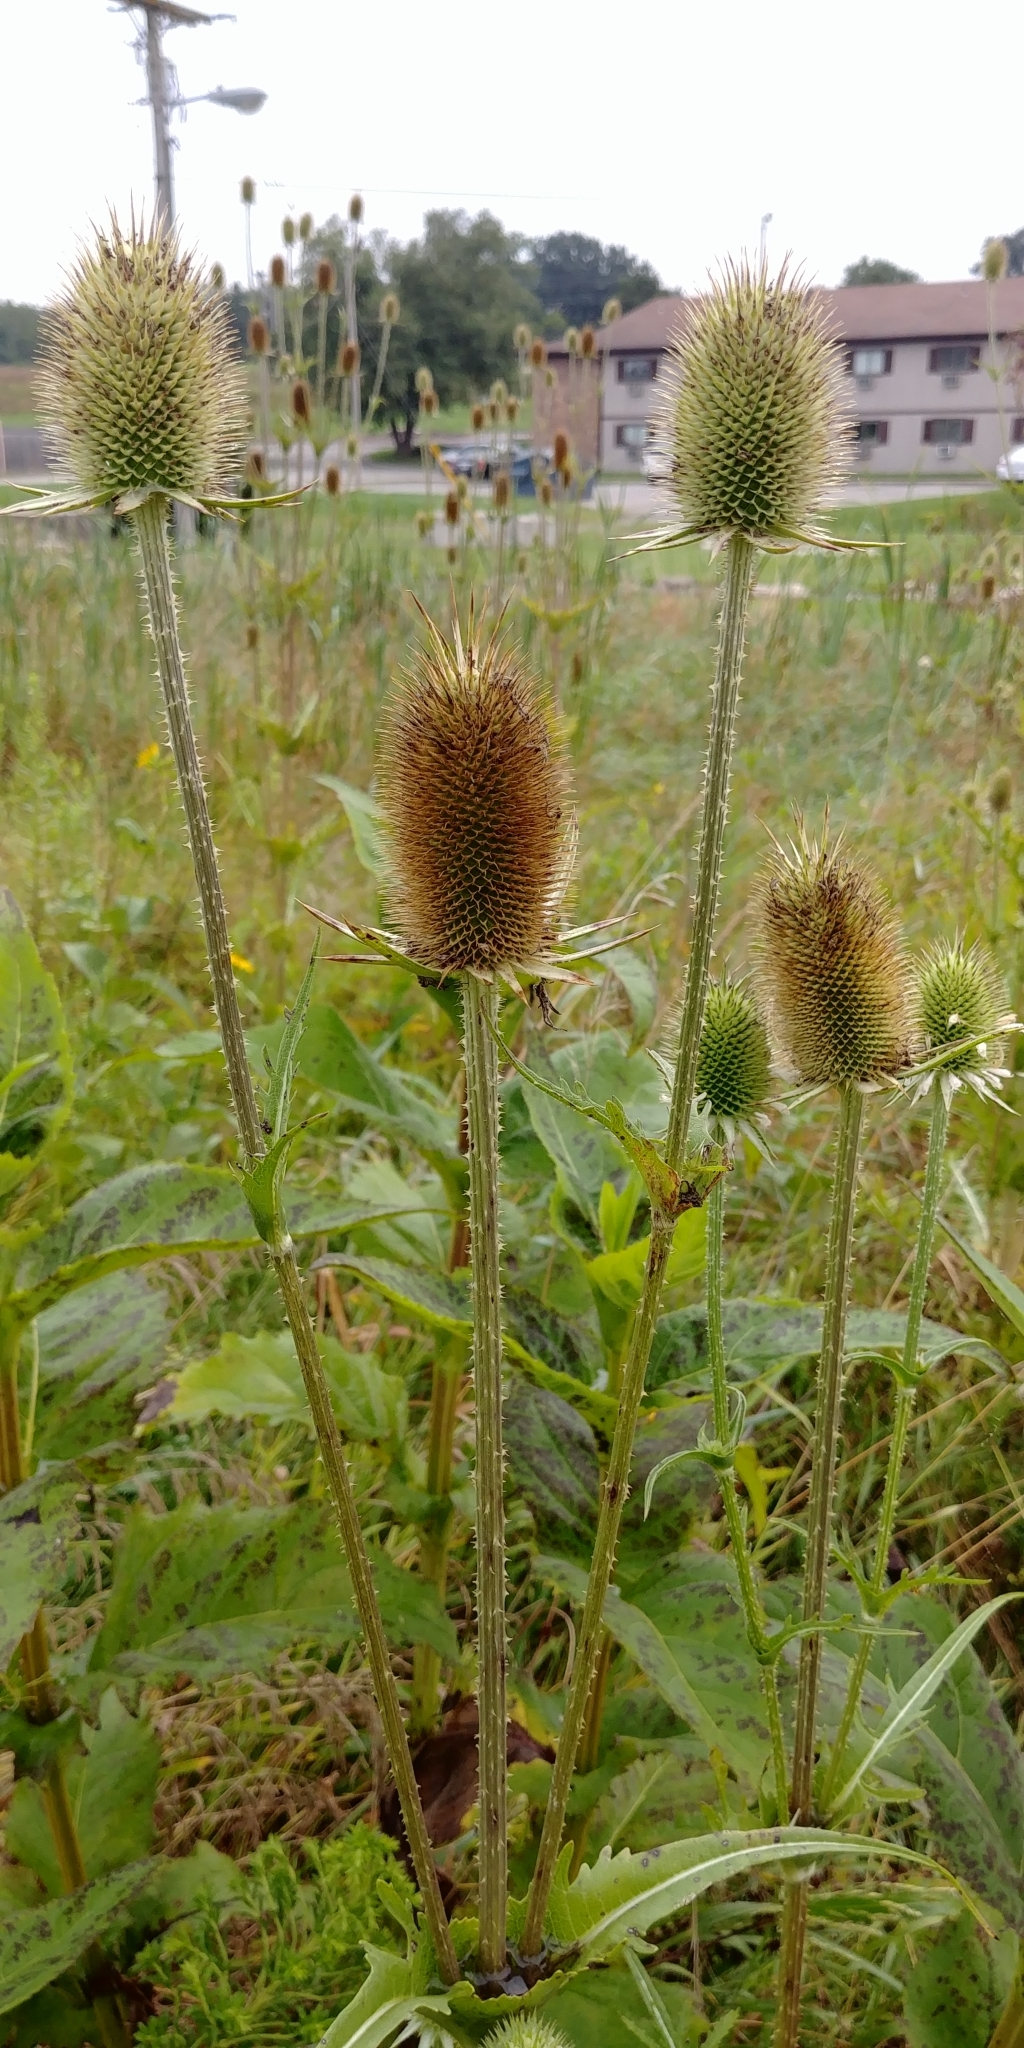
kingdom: Plantae
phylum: Tracheophyta
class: Magnoliopsida
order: Dipsacales
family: Caprifoliaceae
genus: Dipsacus
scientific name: Dipsacus laciniatus
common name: Cut-leaved teasel
